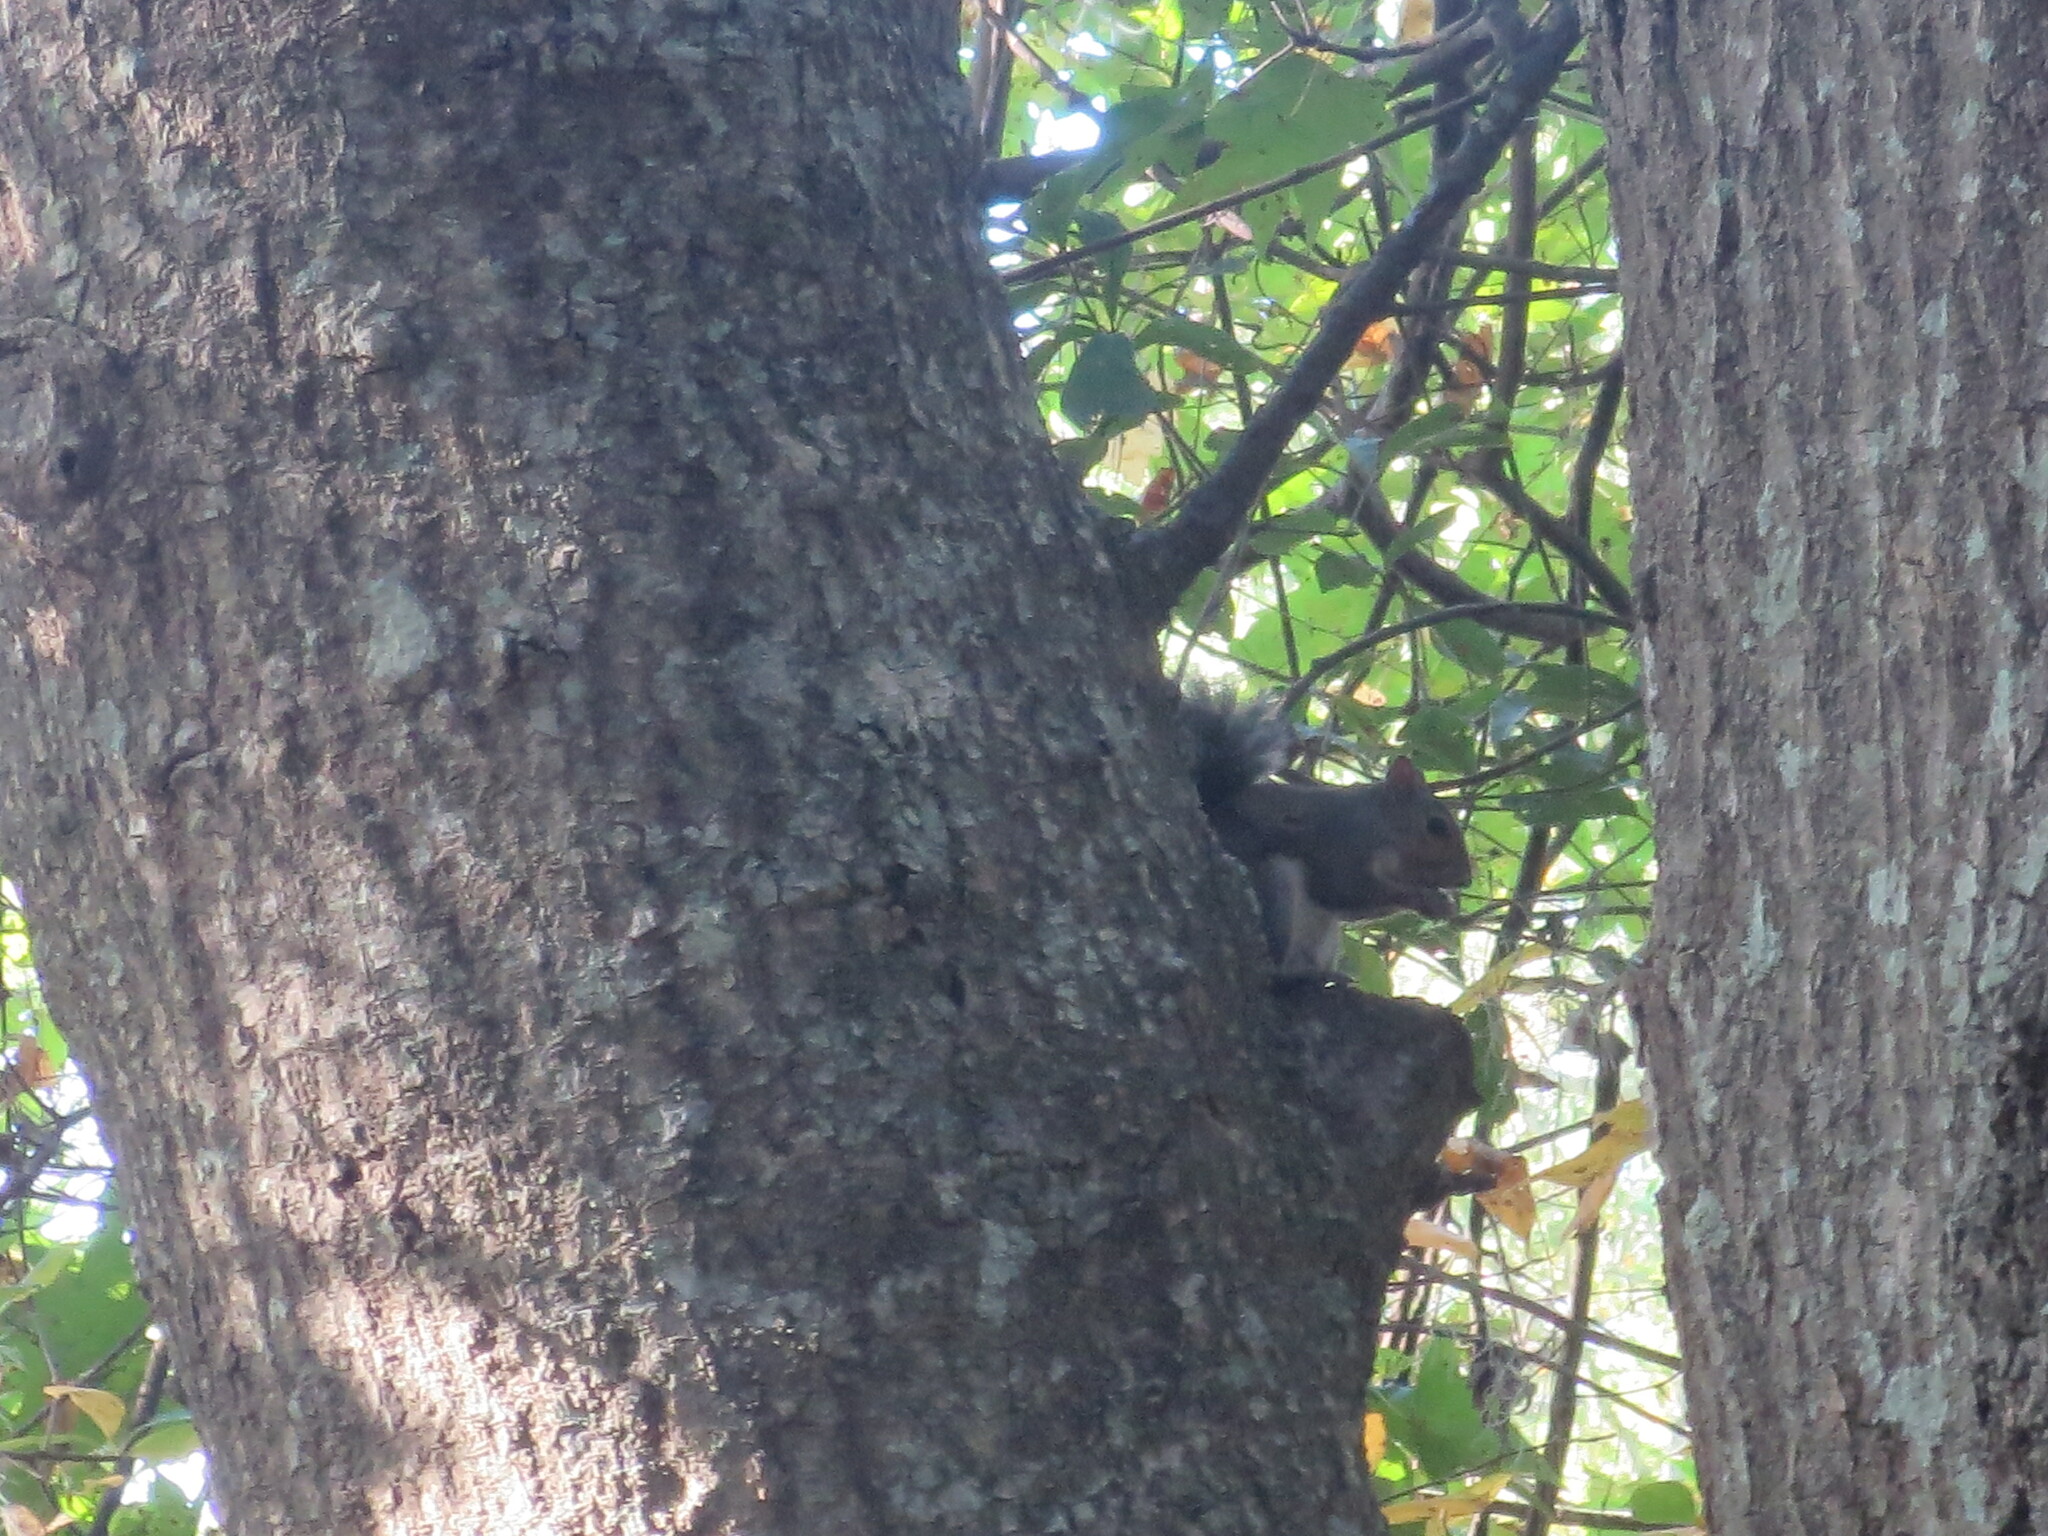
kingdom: Animalia
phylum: Chordata
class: Mammalia
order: Rodentia
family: Sciuridae
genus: Sciurus
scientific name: Sciurus carolinensis
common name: Eastern gray squirrel
